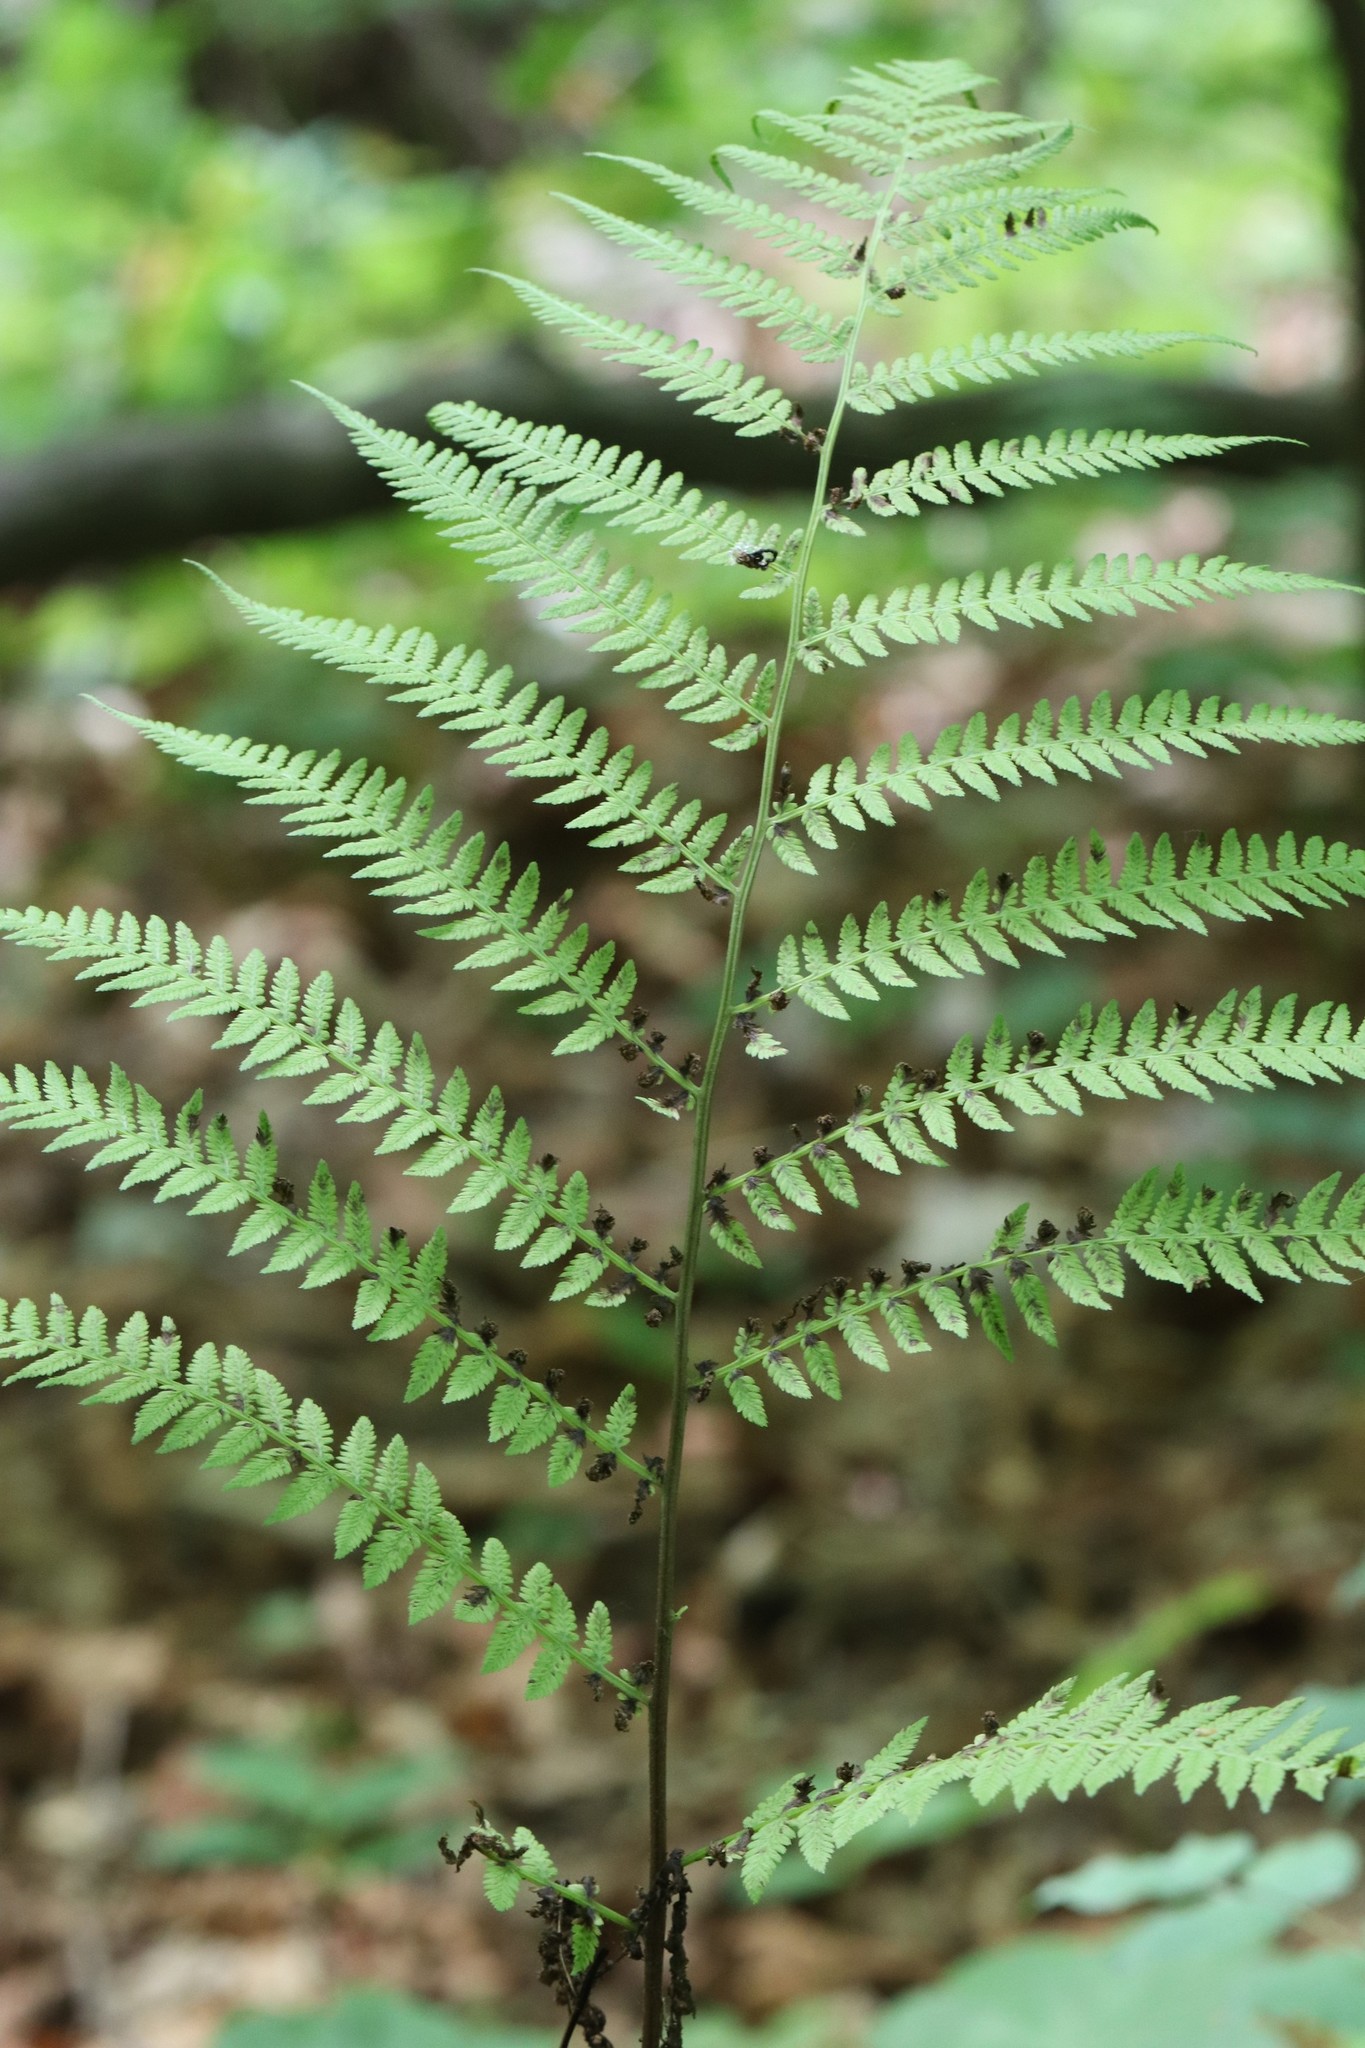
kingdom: Plantae
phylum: Tracheophyta
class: Polypodiopsida
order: Polypodiales
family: Athyriaceae
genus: Athyrium
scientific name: Athyrium filix-femina
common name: Lady fern
